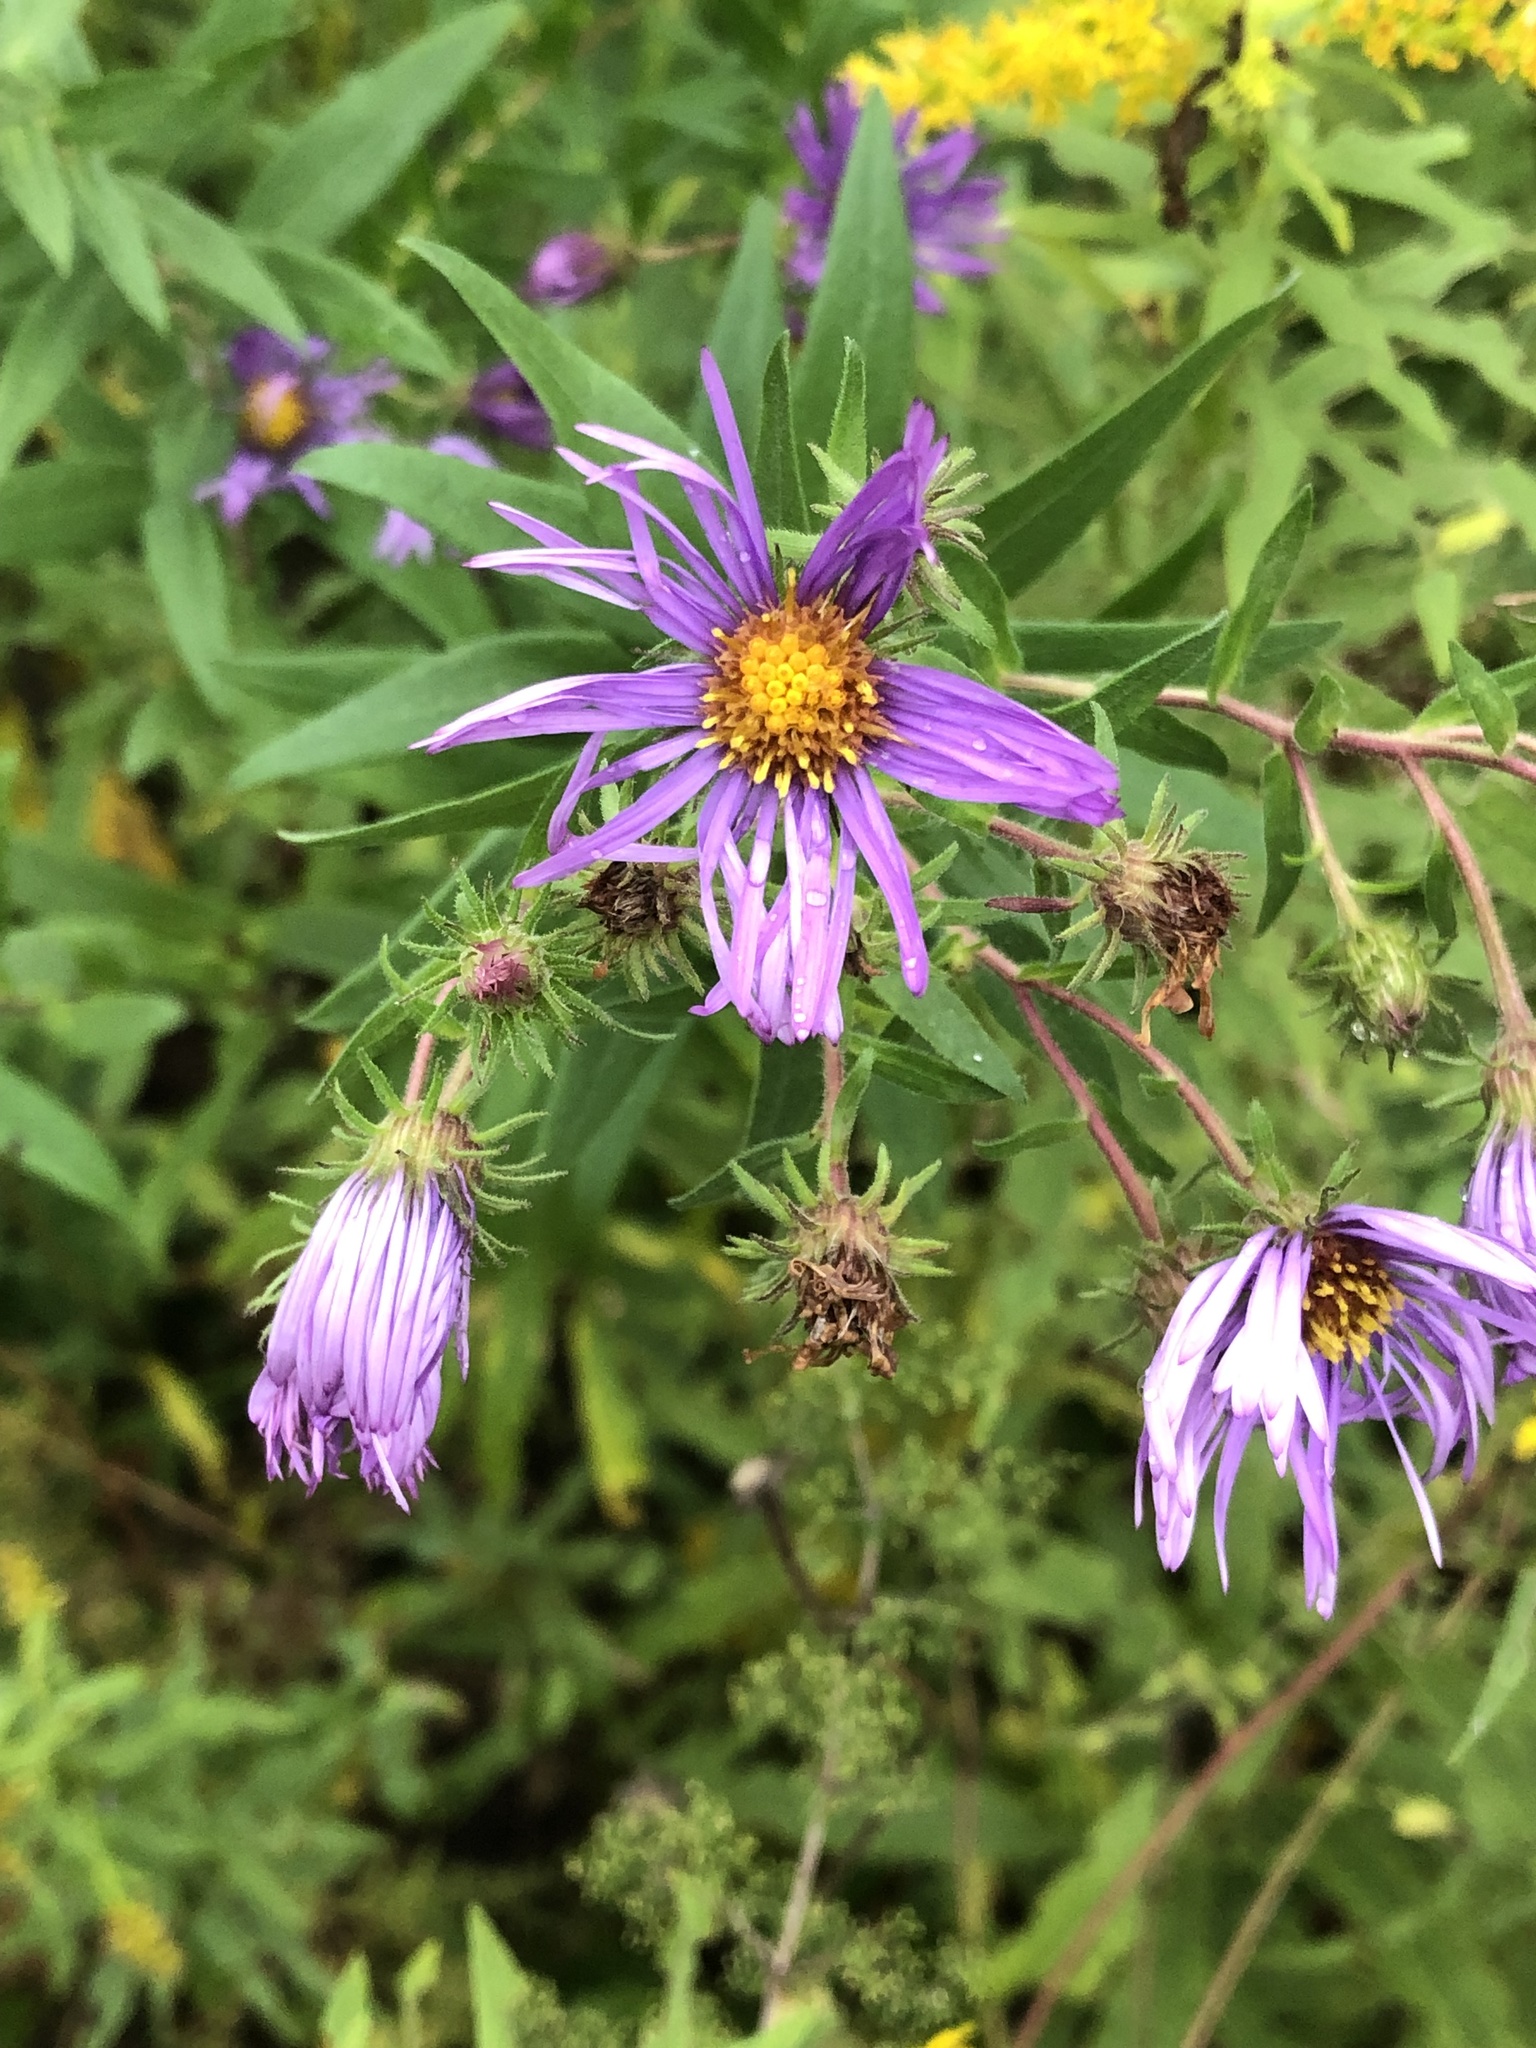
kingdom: Plantae
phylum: Tracheophyta
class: Magnoliopsida
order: Asterales
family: Asteraceae
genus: Symphyotrichum
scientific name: Symphyotrichum novae-angliae
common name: Michaelmas daisy
